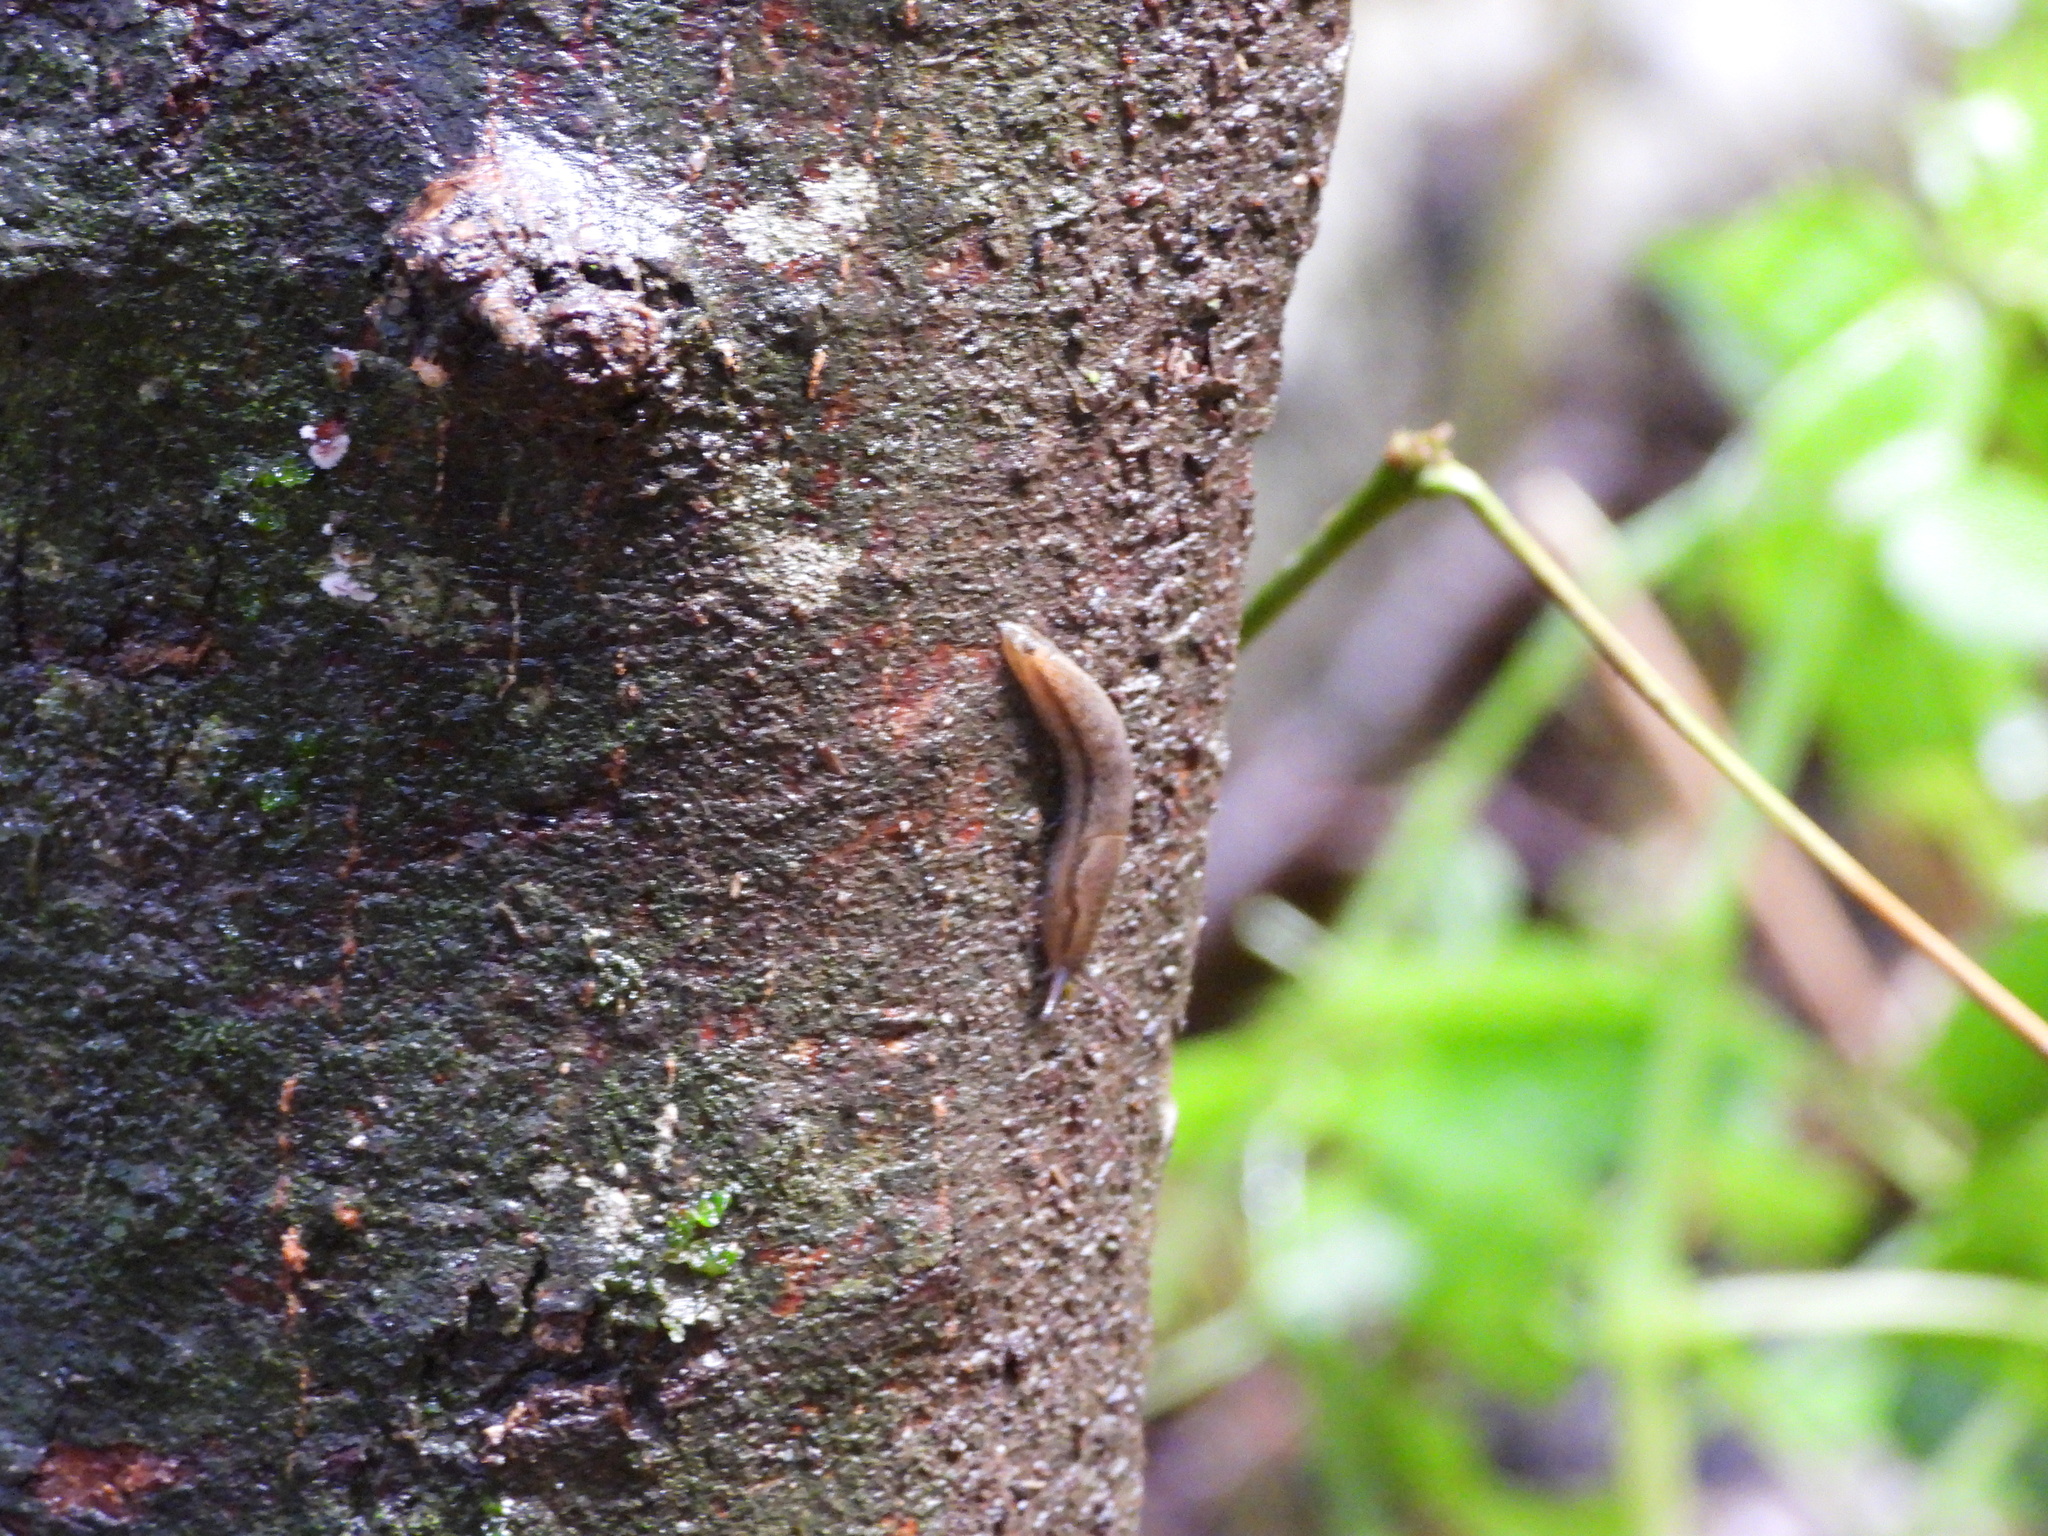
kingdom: Animalia
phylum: Mollusca
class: Gastropoda
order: Stylommatophora
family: Arionidae
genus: Mesarion
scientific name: Mesarion
